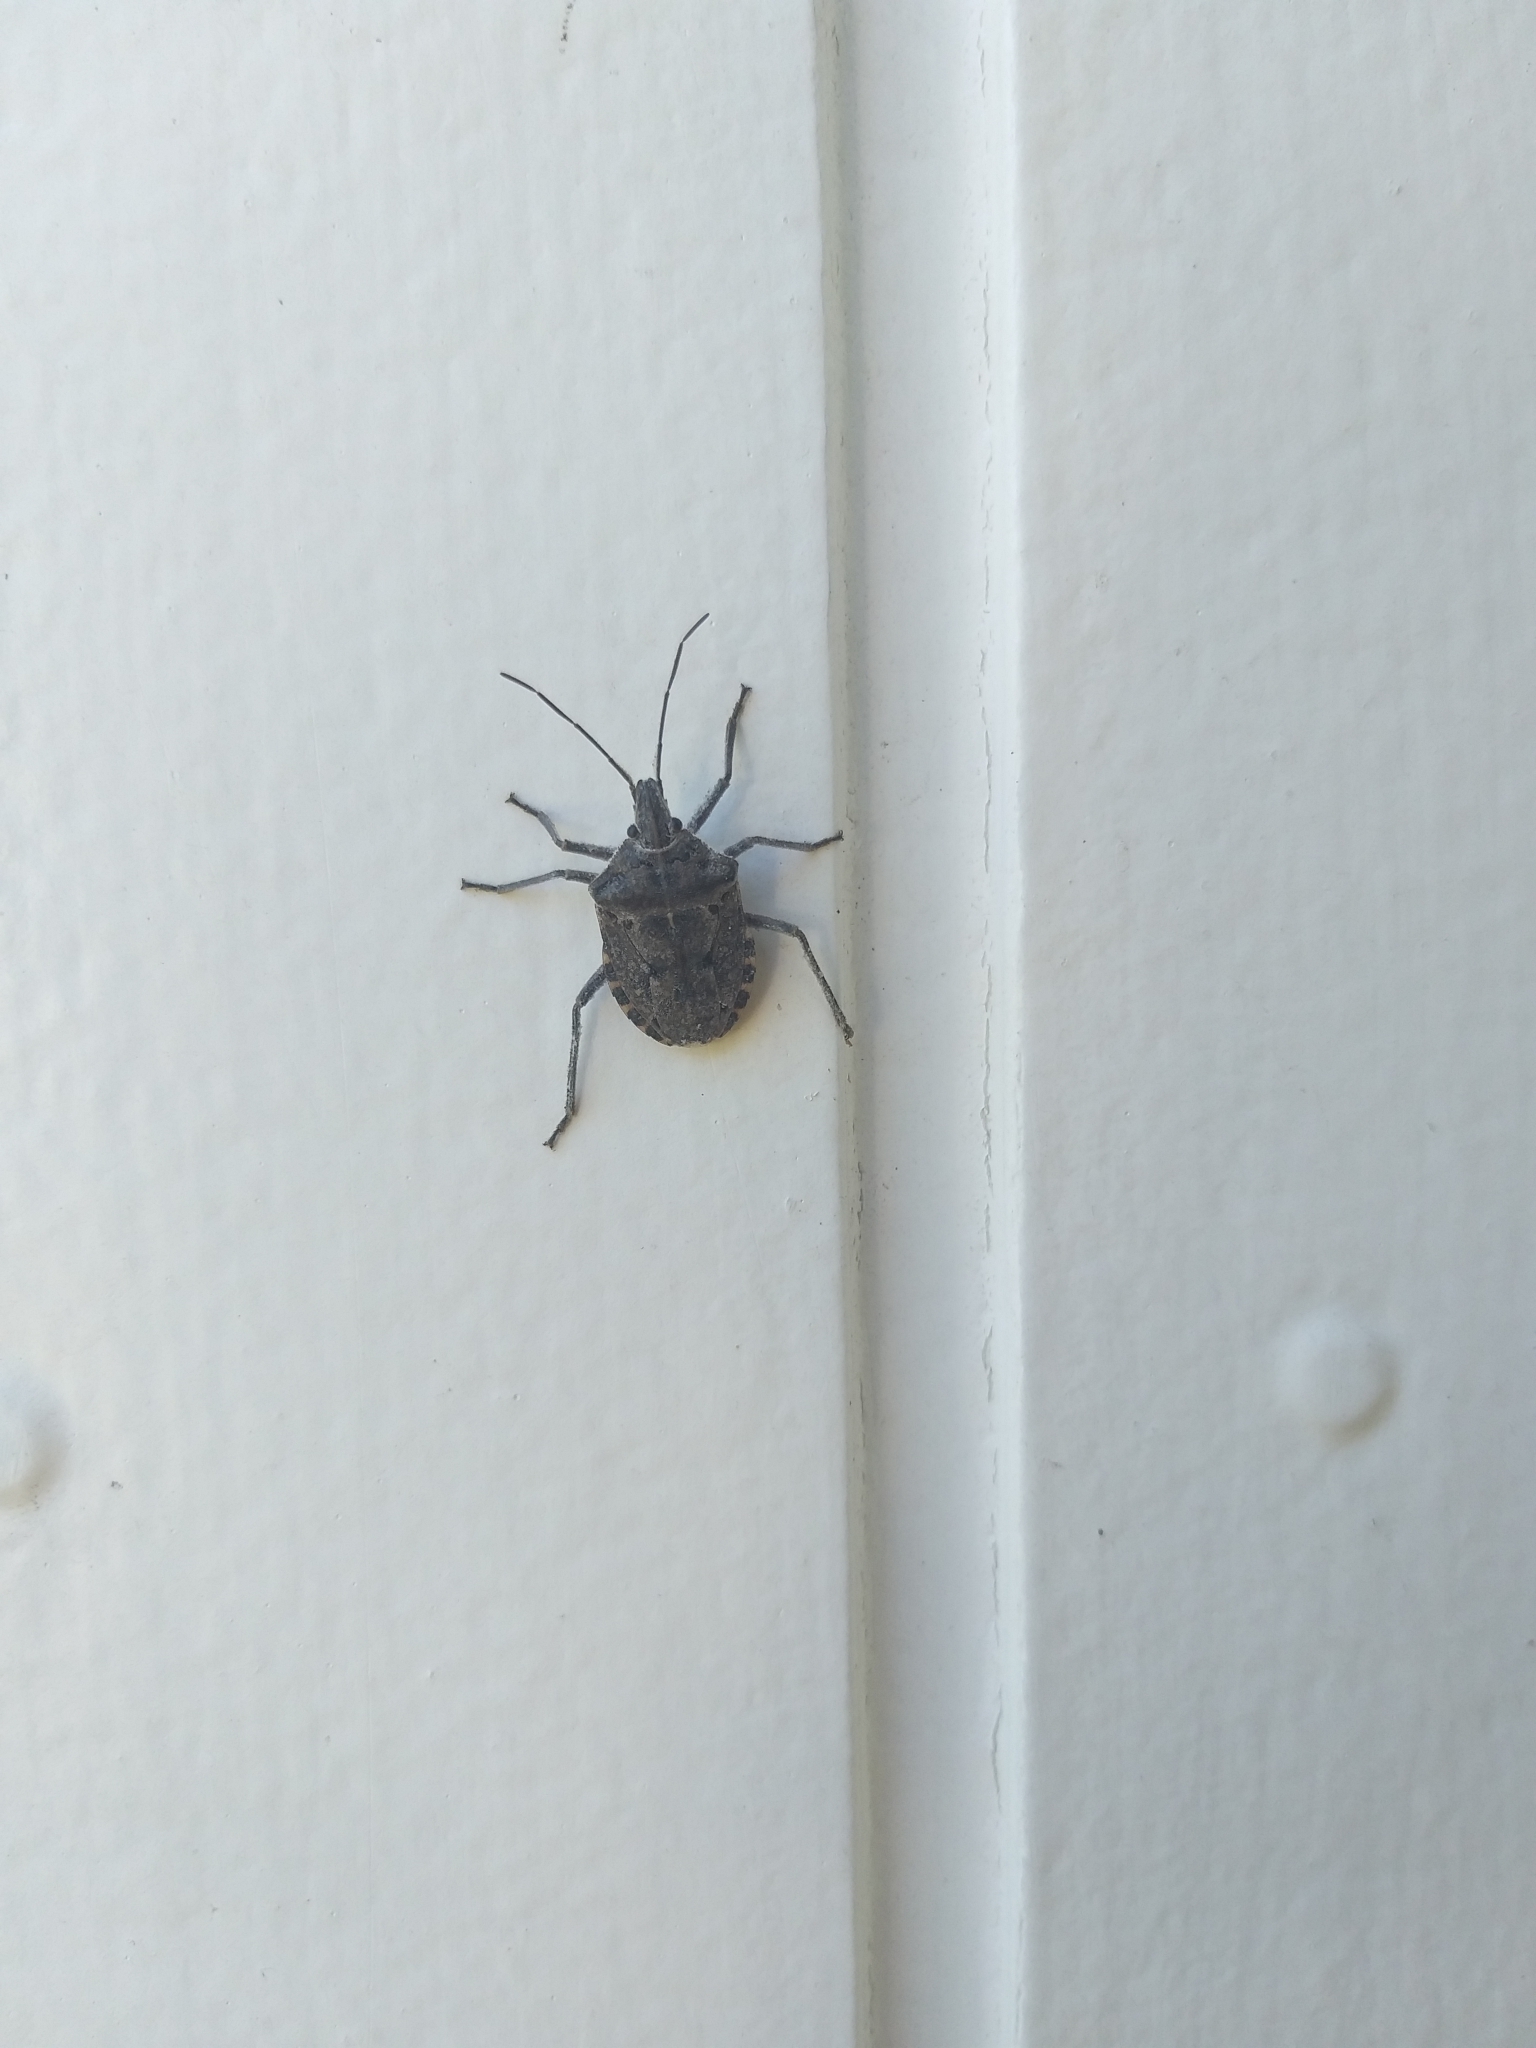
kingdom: Animalia
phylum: Arthropoda
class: Insecta
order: Hemiptera
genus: Peltasticus
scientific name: Peltasticus
